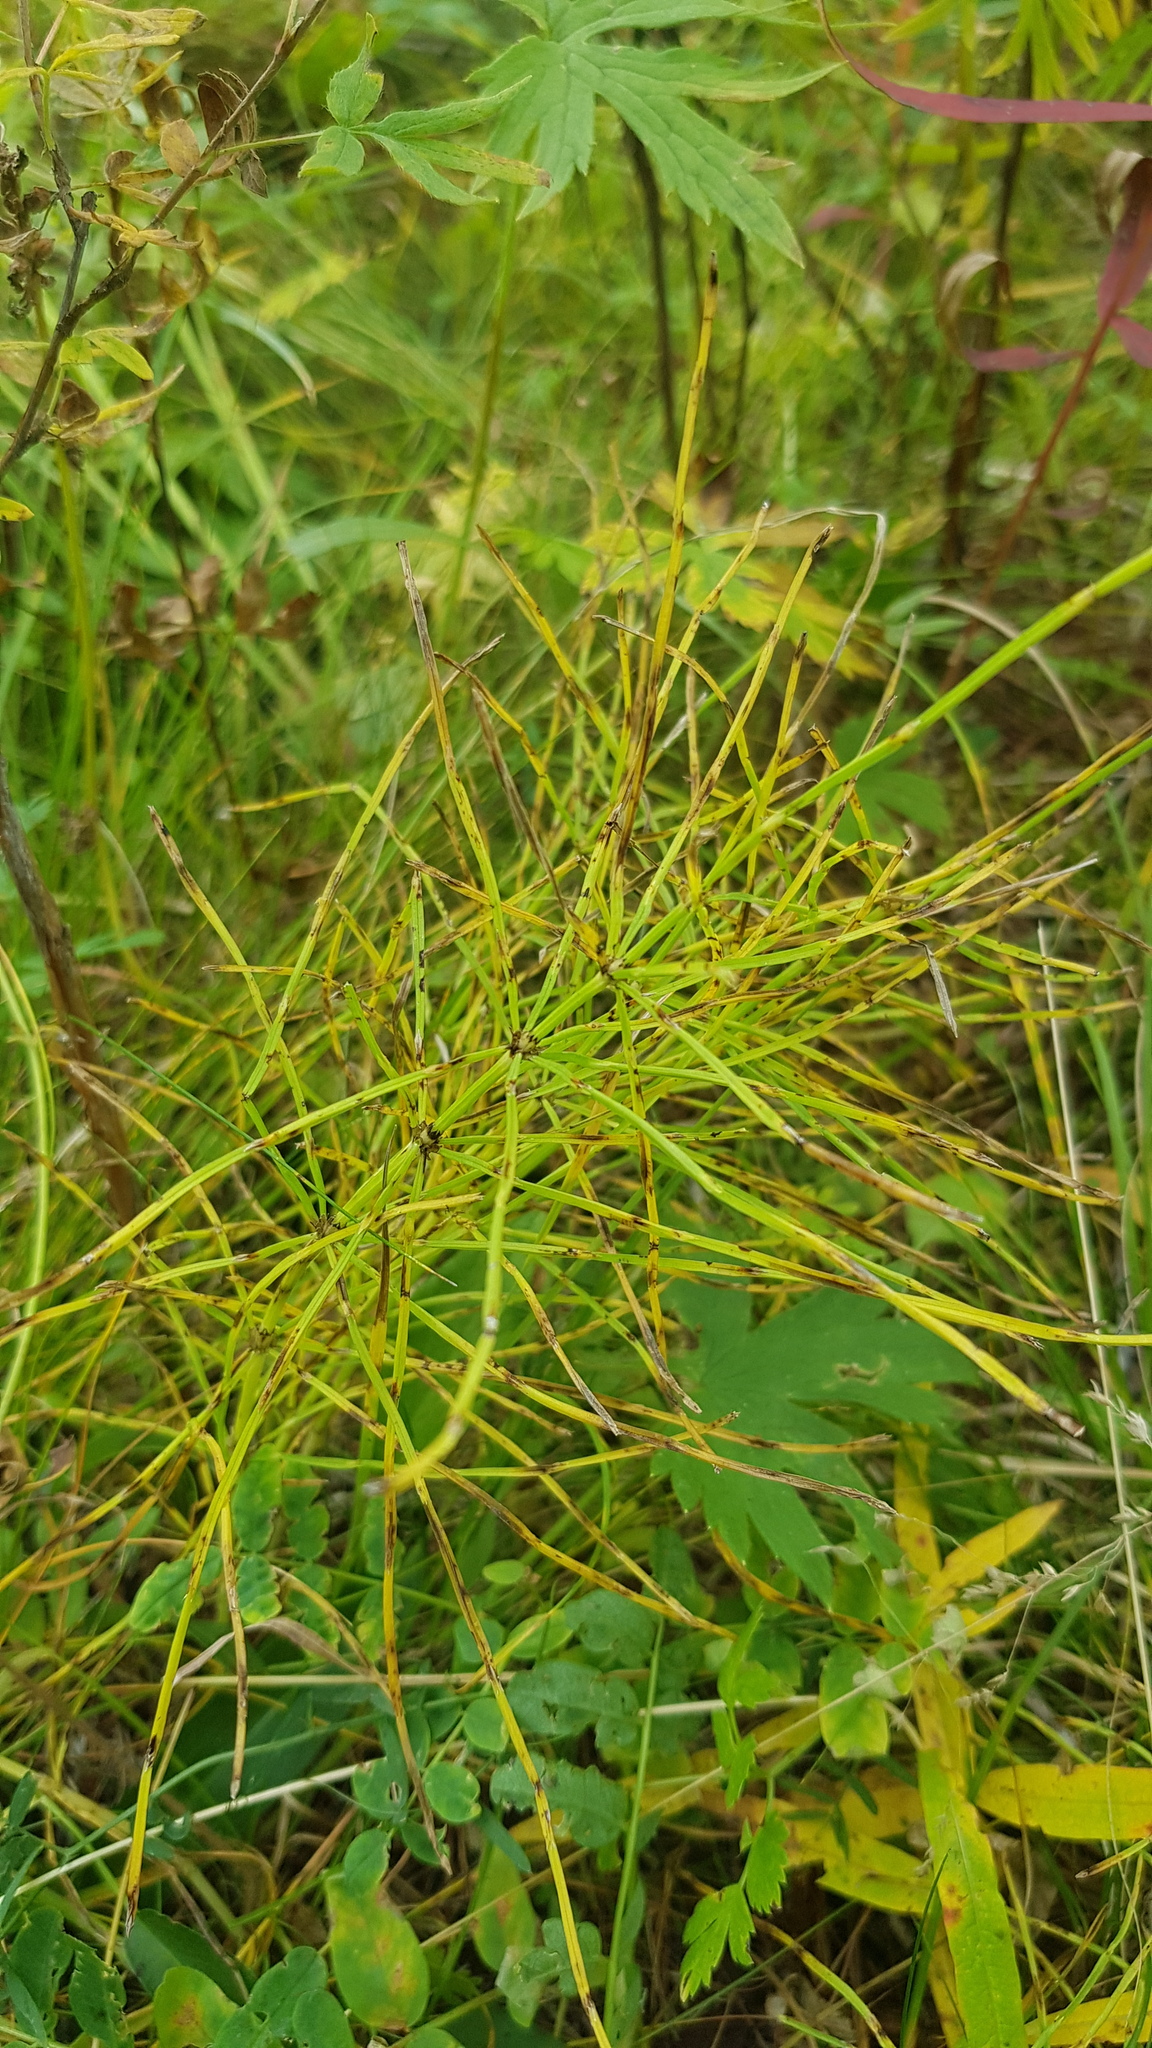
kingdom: Plantae
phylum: Tracheophyta
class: Polypodiopsida
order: Equisetales
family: Equisetaceae
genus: Equisetum
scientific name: Equisetum sylvaticum
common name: Wood horsetail
